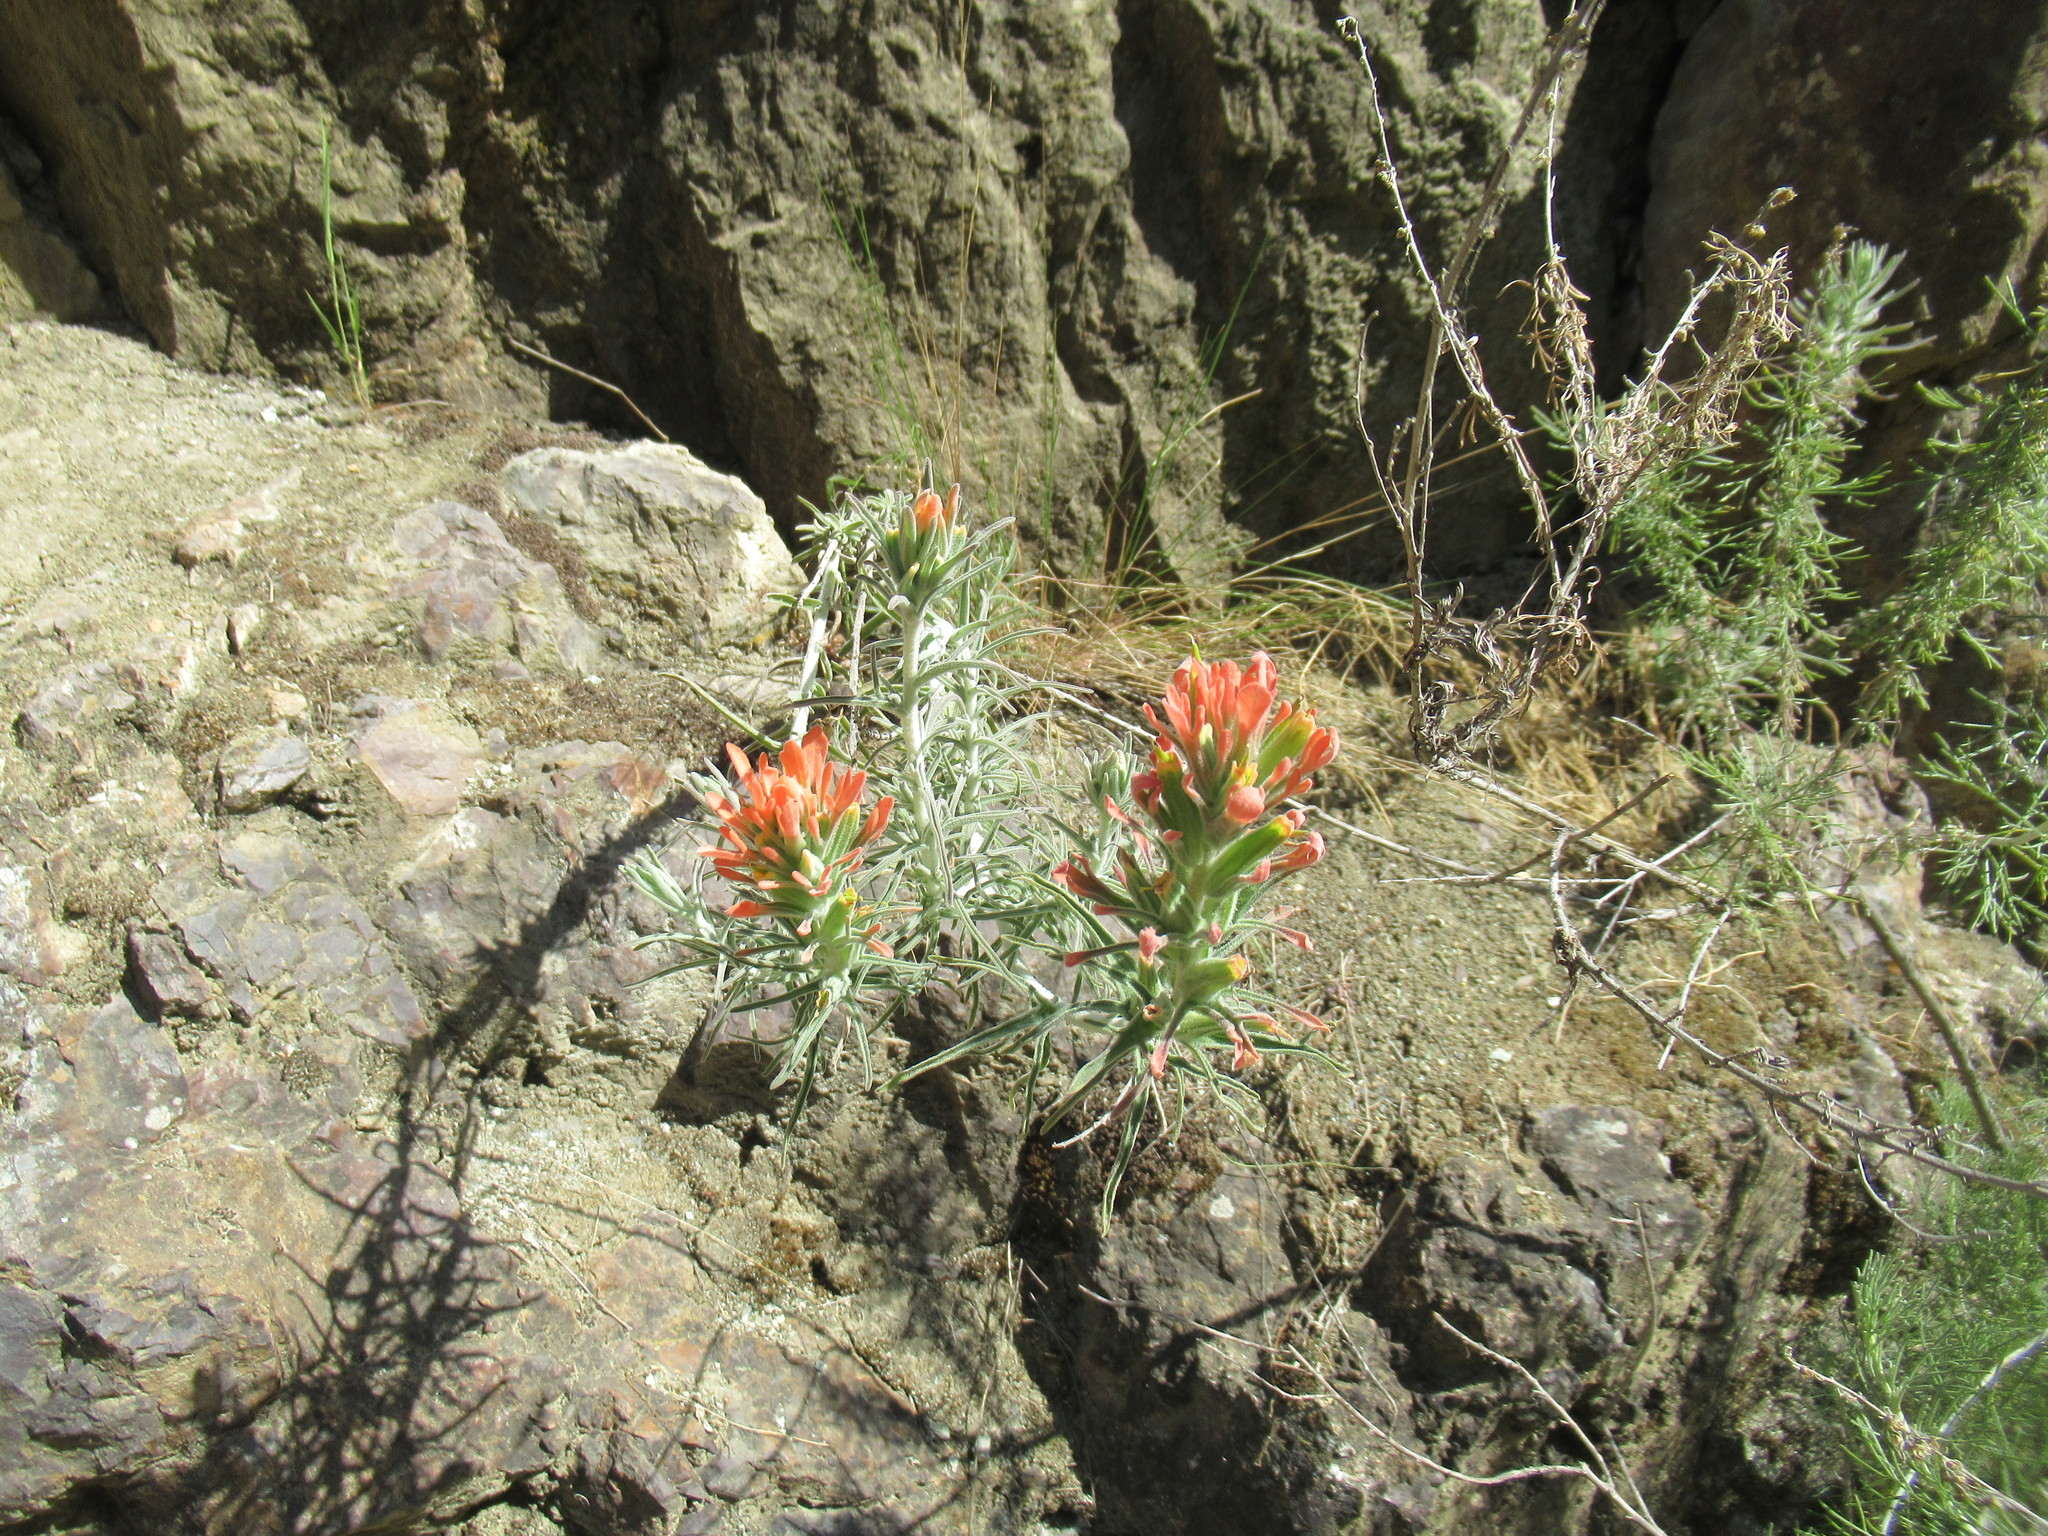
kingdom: Plantae
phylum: Tracheophyta
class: Magnoliopsida
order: Lamiales
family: Orobanchaceae
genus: Castilleja
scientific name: Castilleja foliolosa
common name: Woolly indian paintbrush
